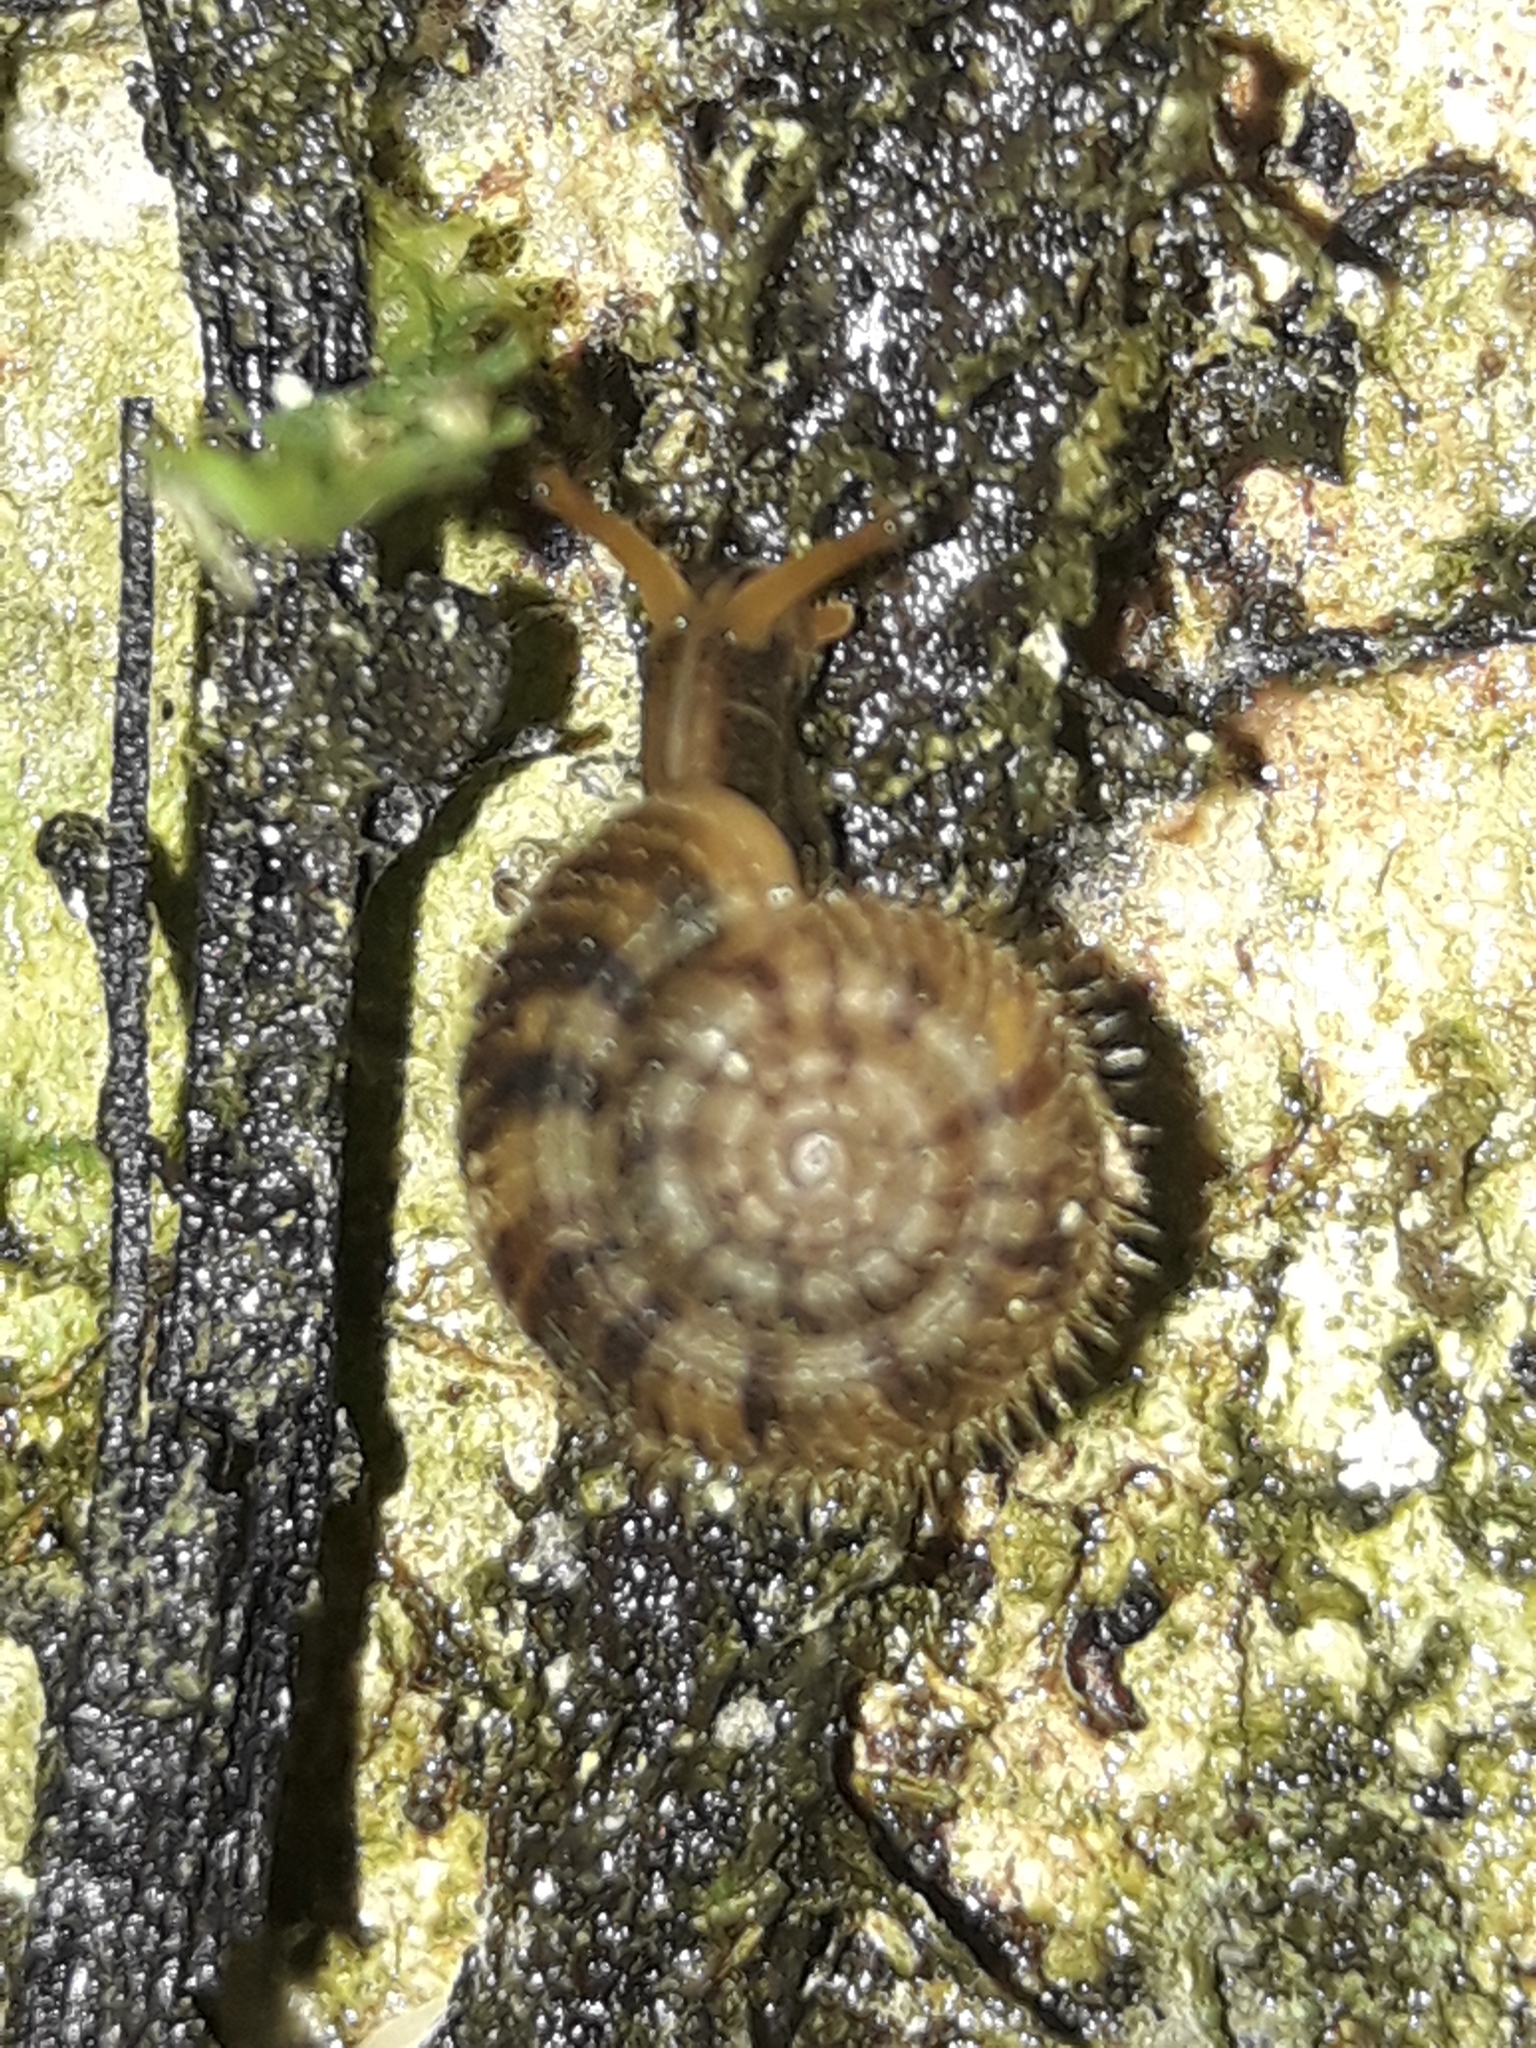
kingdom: Animalia
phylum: Mollusca
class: Gastropoda
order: Stylommatophora
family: Charopidae
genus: Suteria
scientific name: Suteria ide
